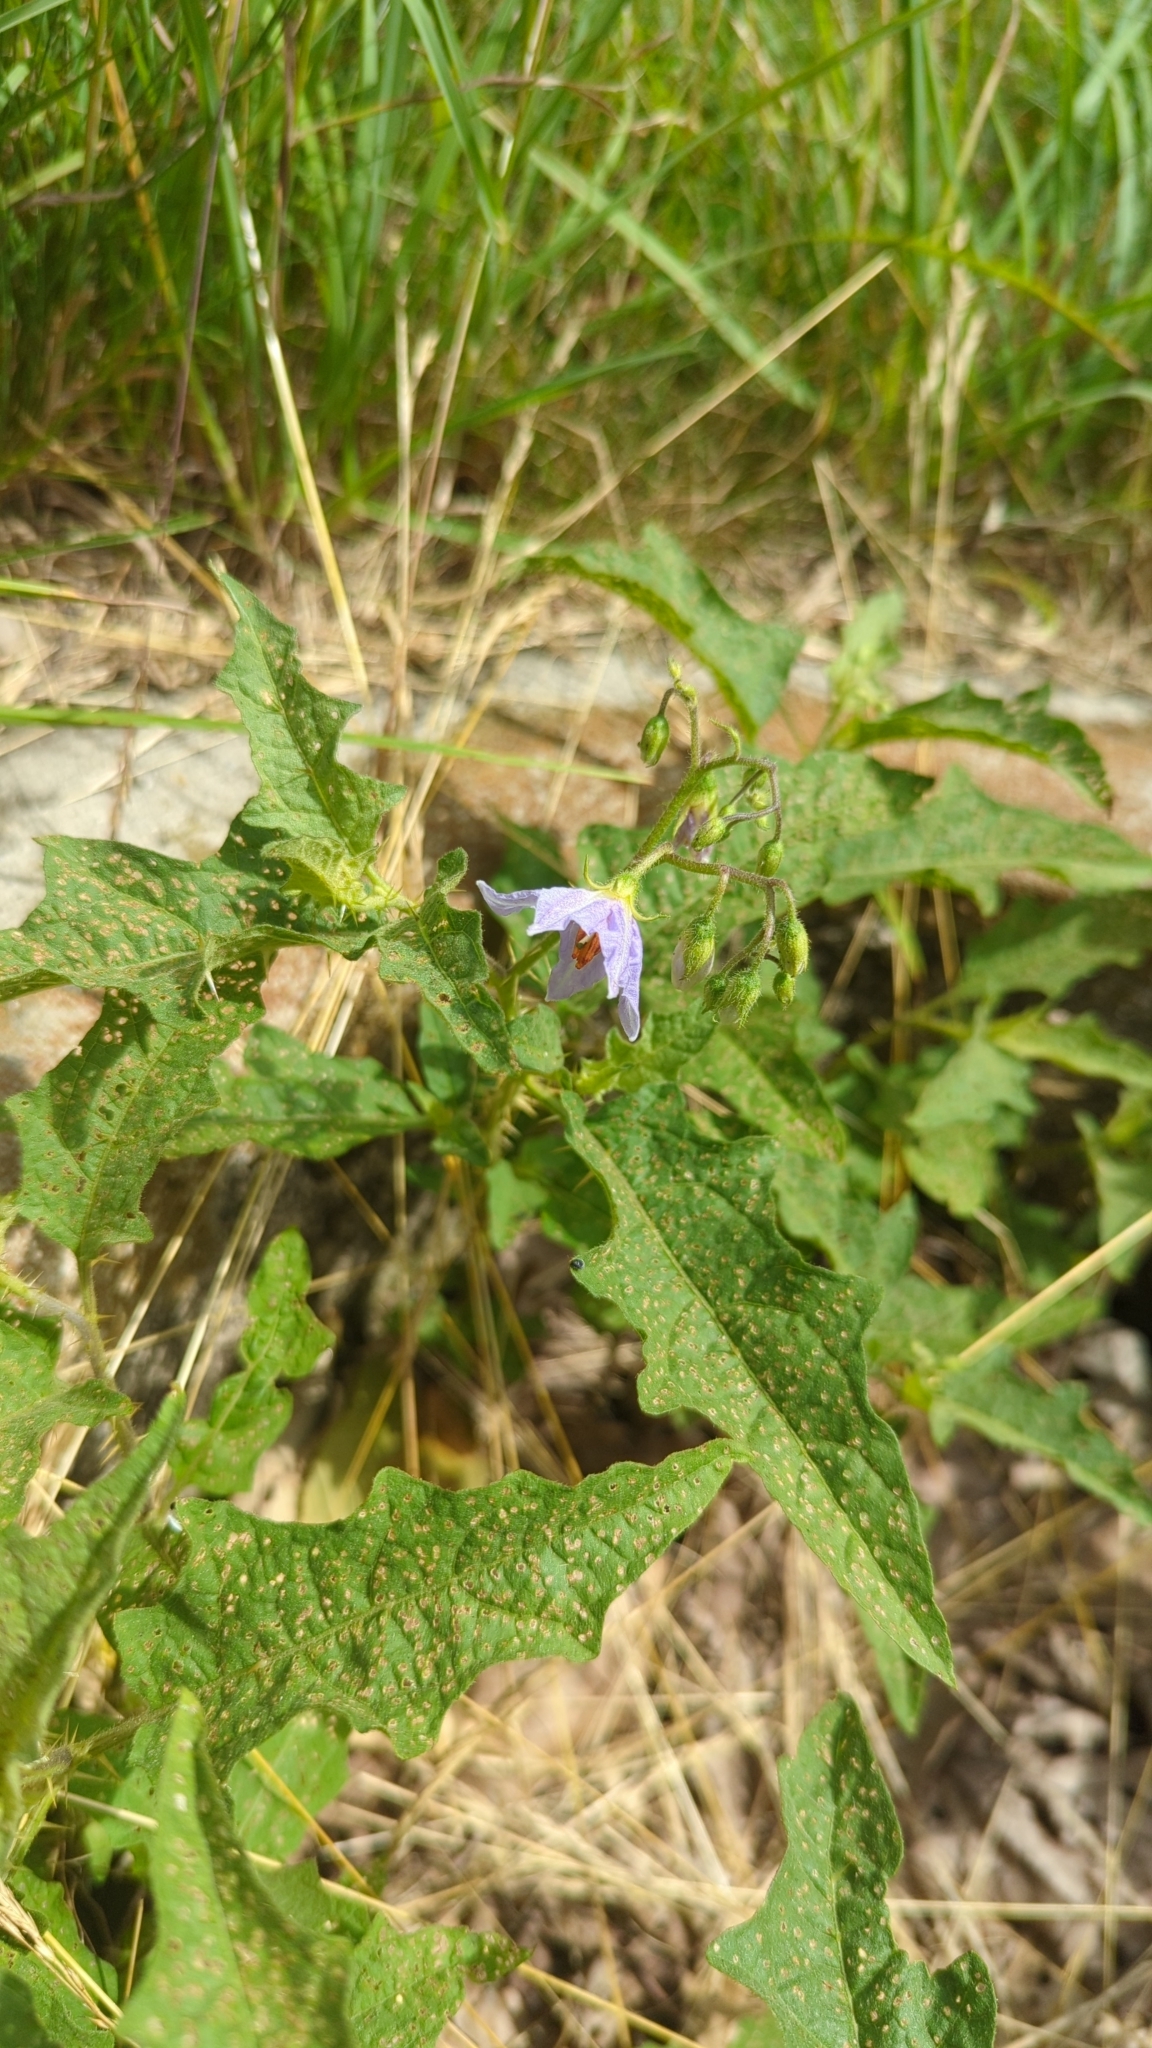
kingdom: Plantae
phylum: Tracheophyta
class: Magnoliopsida
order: Solanales
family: Solanaceae
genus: Solanum
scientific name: Solanum carolinense
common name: Horse-nettle
